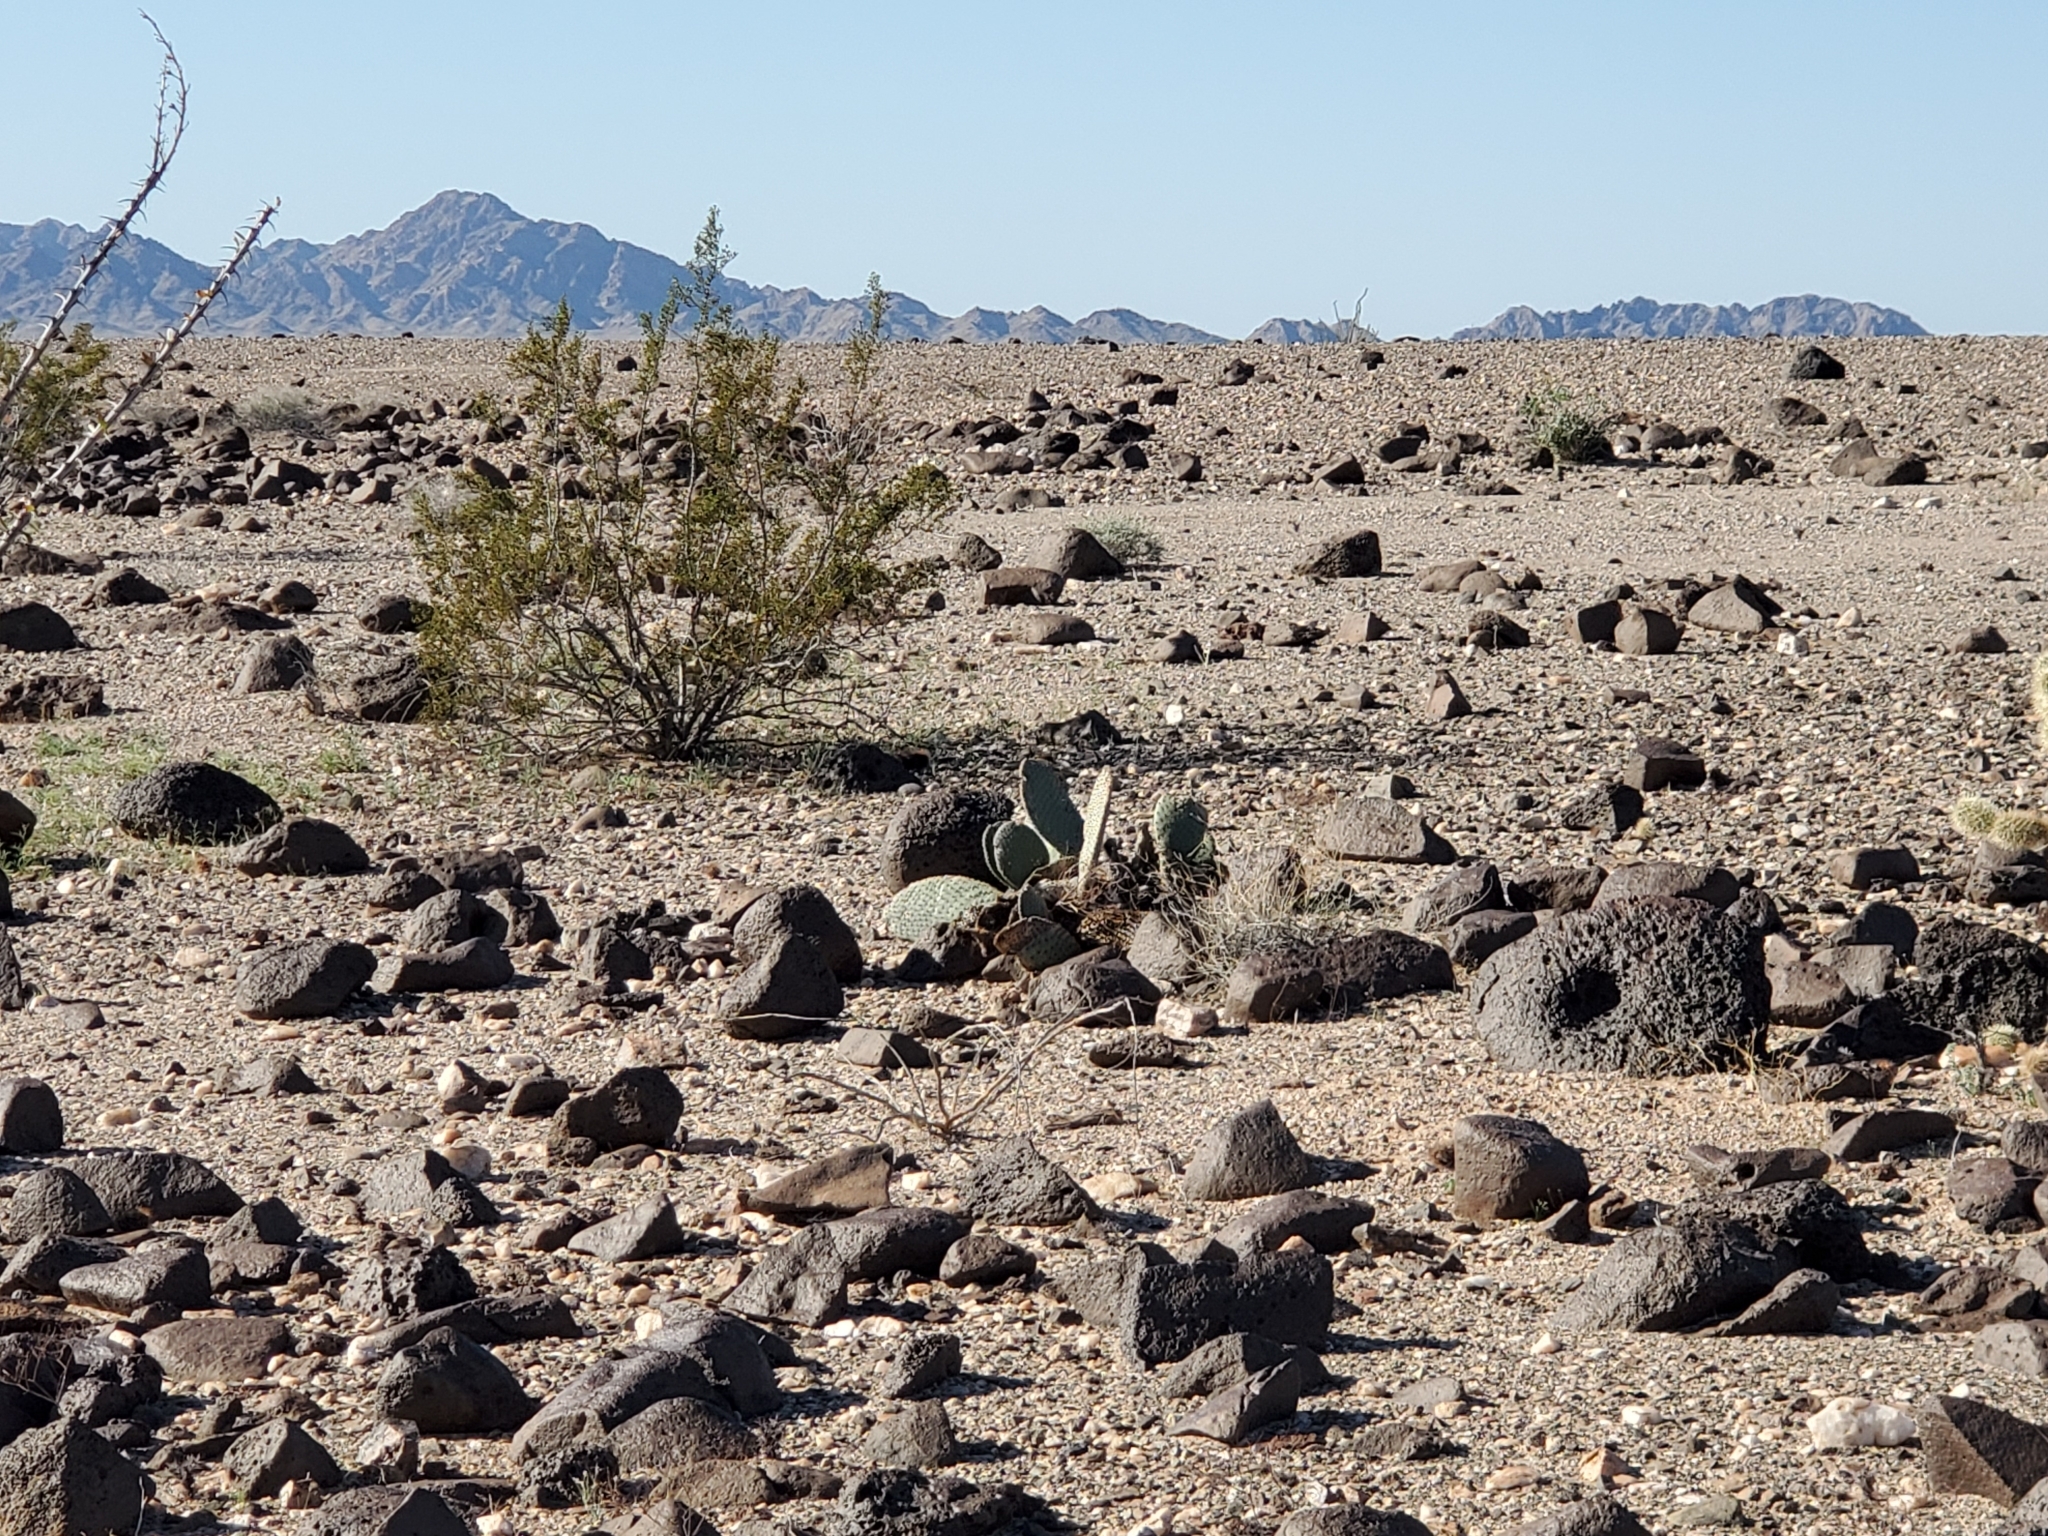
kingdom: Plantae
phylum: Tracheophyta
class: Magnoliopsida
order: Caryophyllales
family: Cactaceae
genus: Opuntia
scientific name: Opuntia basilaris
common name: Beavertail prickly-pear
